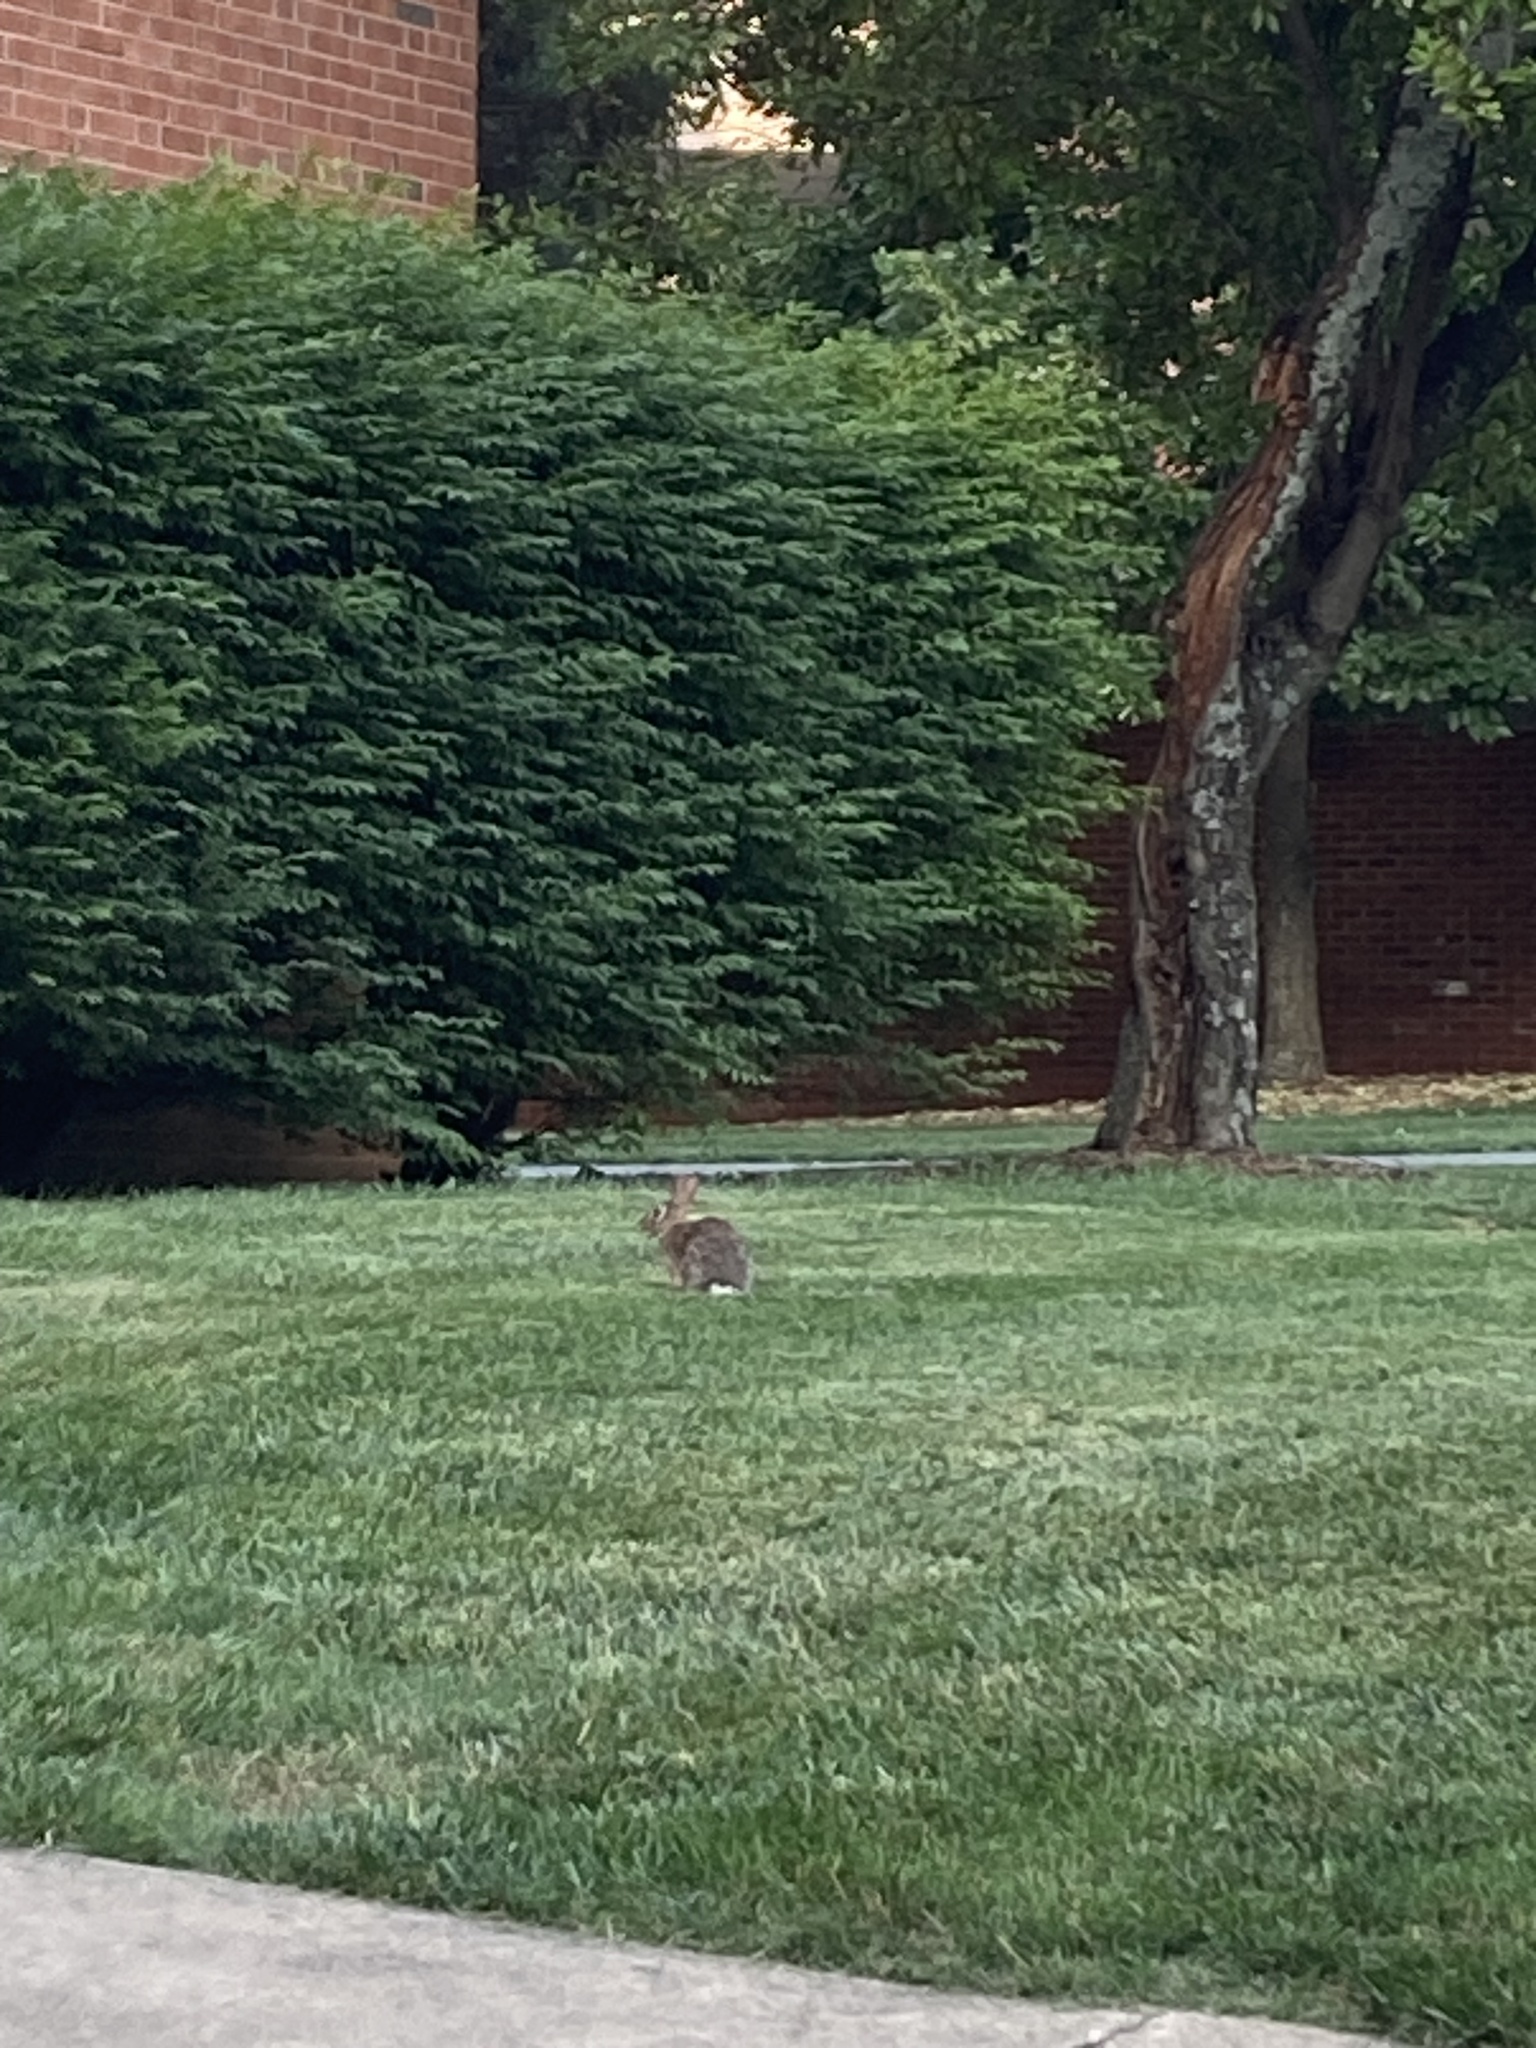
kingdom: Animalia
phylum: Chordata
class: Mammalia
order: Lagomorpha
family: Leporidae
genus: Sylvilagus
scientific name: Sylvilagus floridanus
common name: Eastern cottontail
